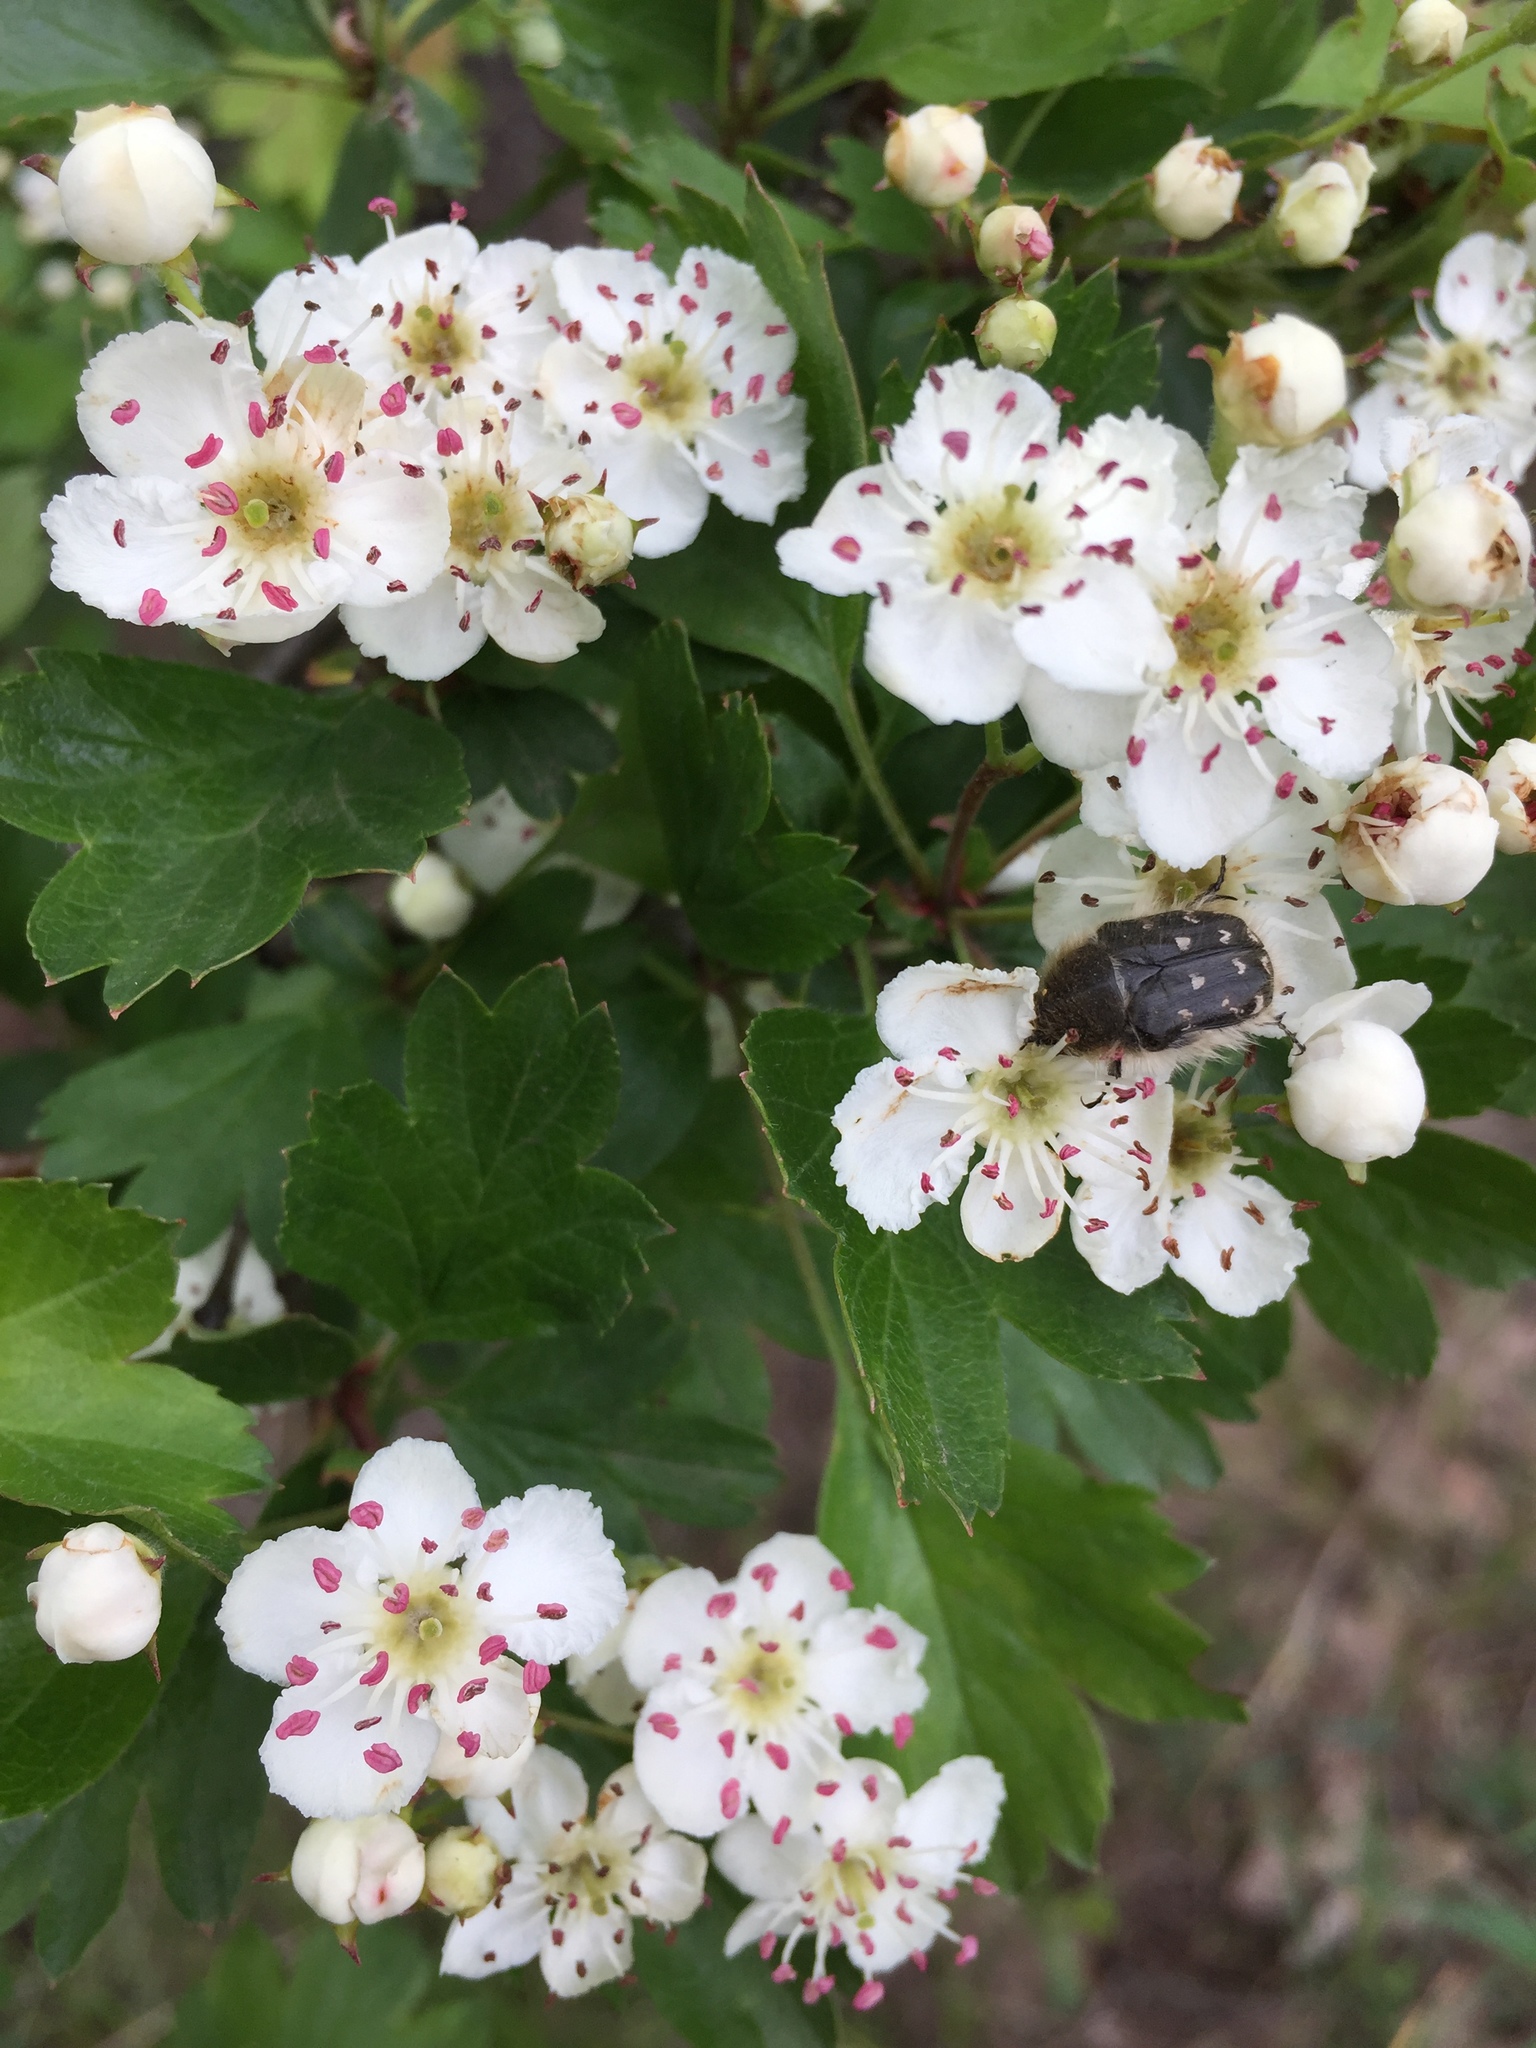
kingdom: Plantae
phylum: Tracheophyta
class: Magnoliopsida
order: Rosales
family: Rosaceae
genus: Crataegus
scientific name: Crataegus monogyna
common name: Hawthorn
